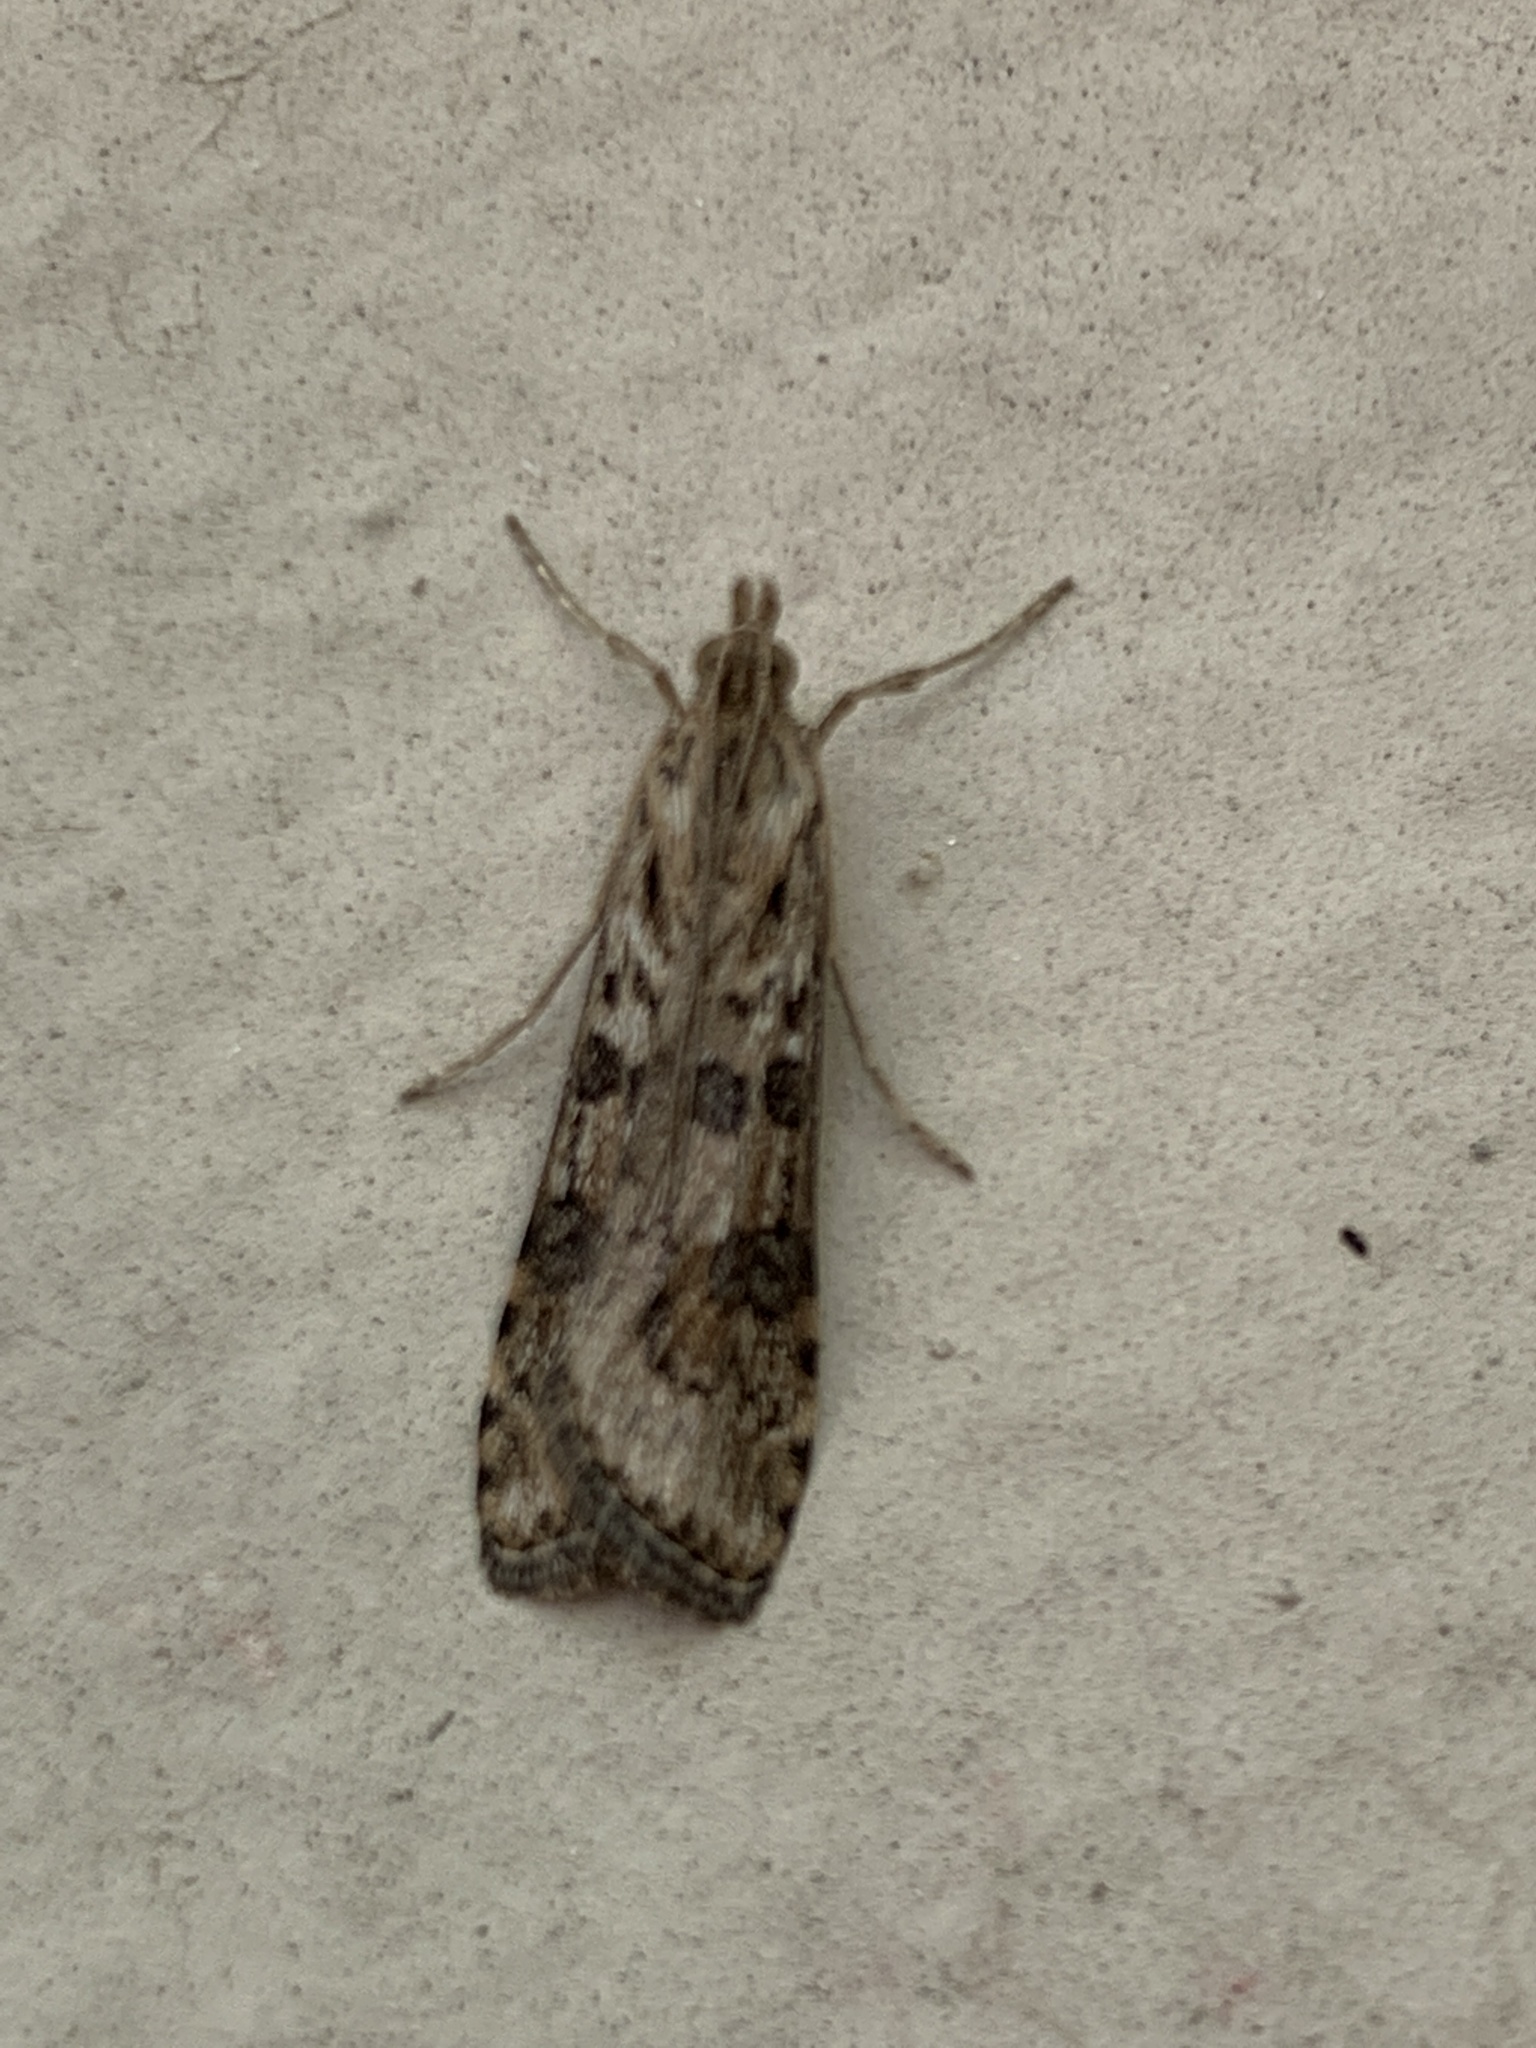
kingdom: Animalia
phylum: Arthropoda
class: Insecta
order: Lepidoptera
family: Crambidae
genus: Nomophila
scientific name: Nomophila
